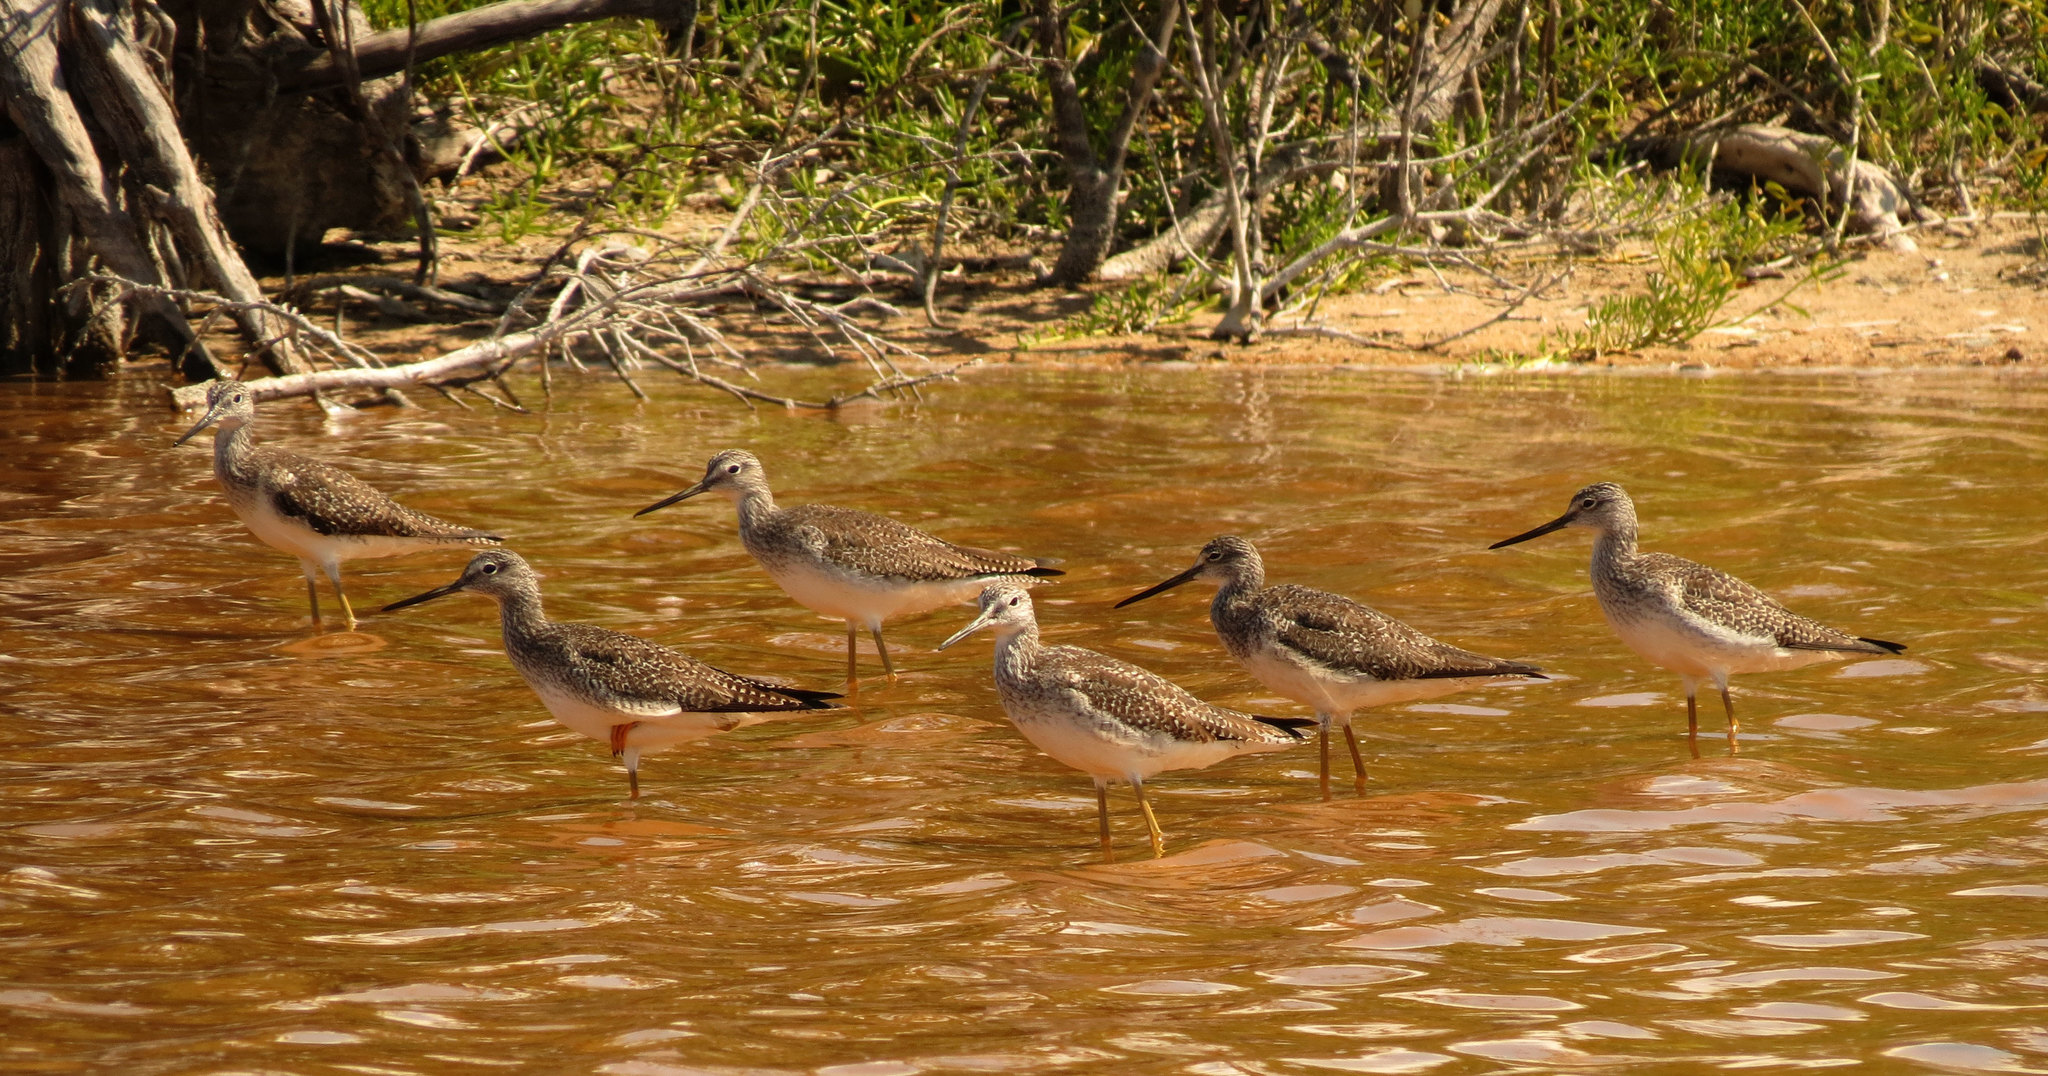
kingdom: Animalia
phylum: Chordata
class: Aves
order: Charadriiformes
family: Scolopacidae
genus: Tringa
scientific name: Tringa melanoleuca
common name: Greater yellowlegs
